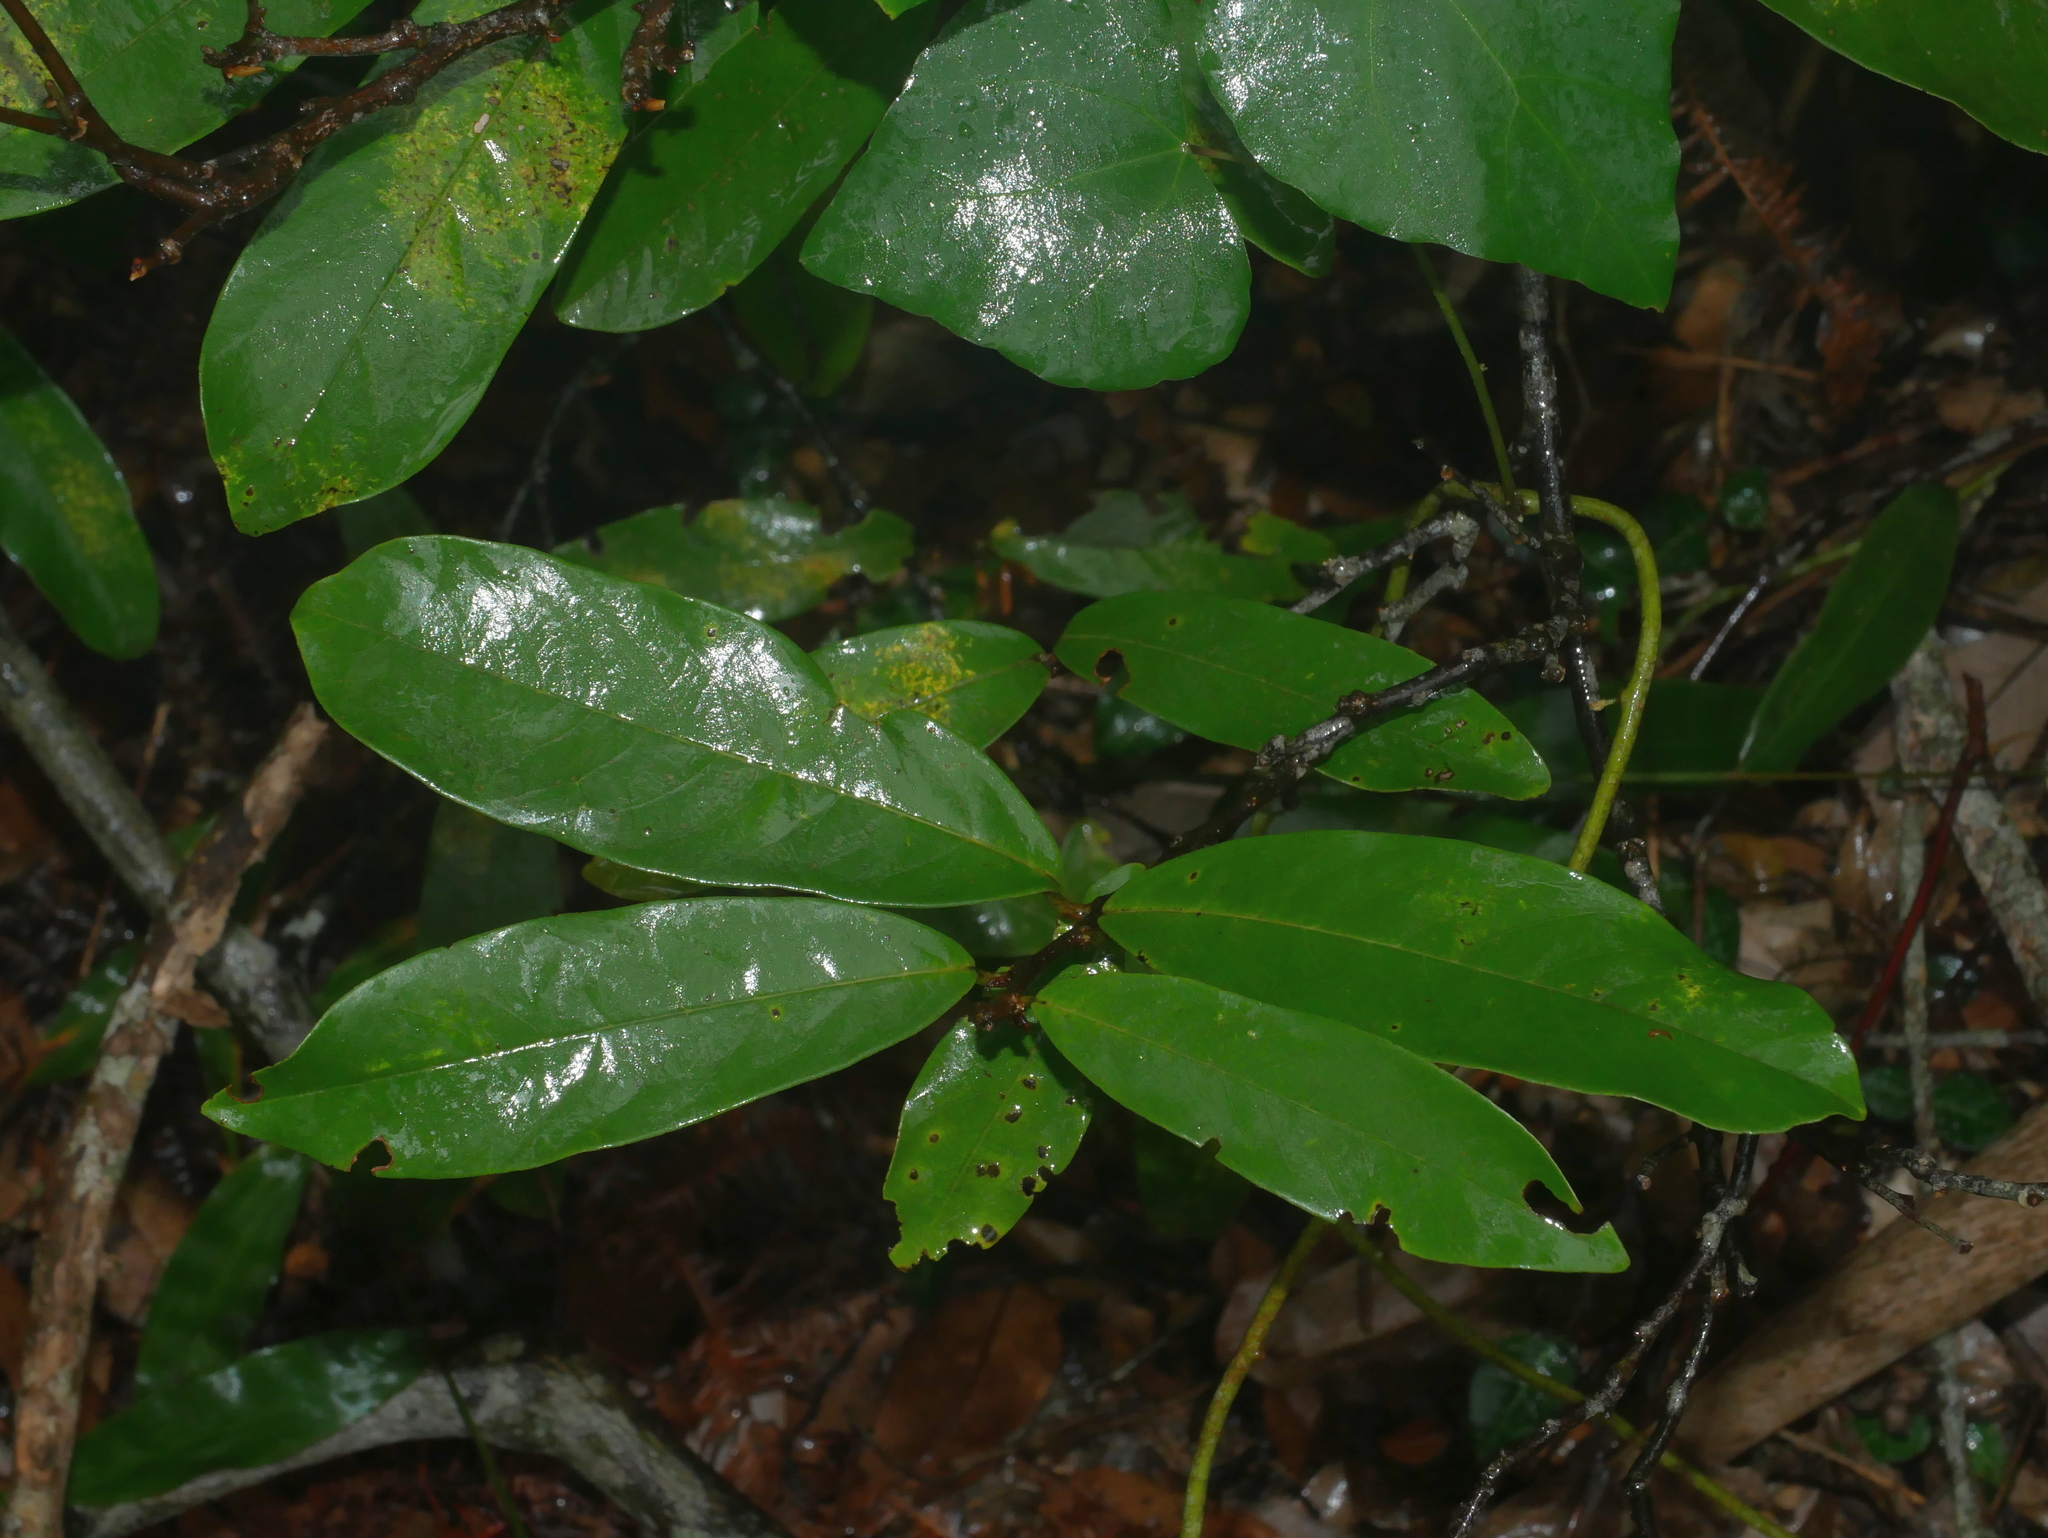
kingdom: Plantae
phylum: Tracheophyta
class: Magnoliopsida
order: Magnoliales
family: Annonaceae
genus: Fissistigma
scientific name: Fissistigma glaucescens
